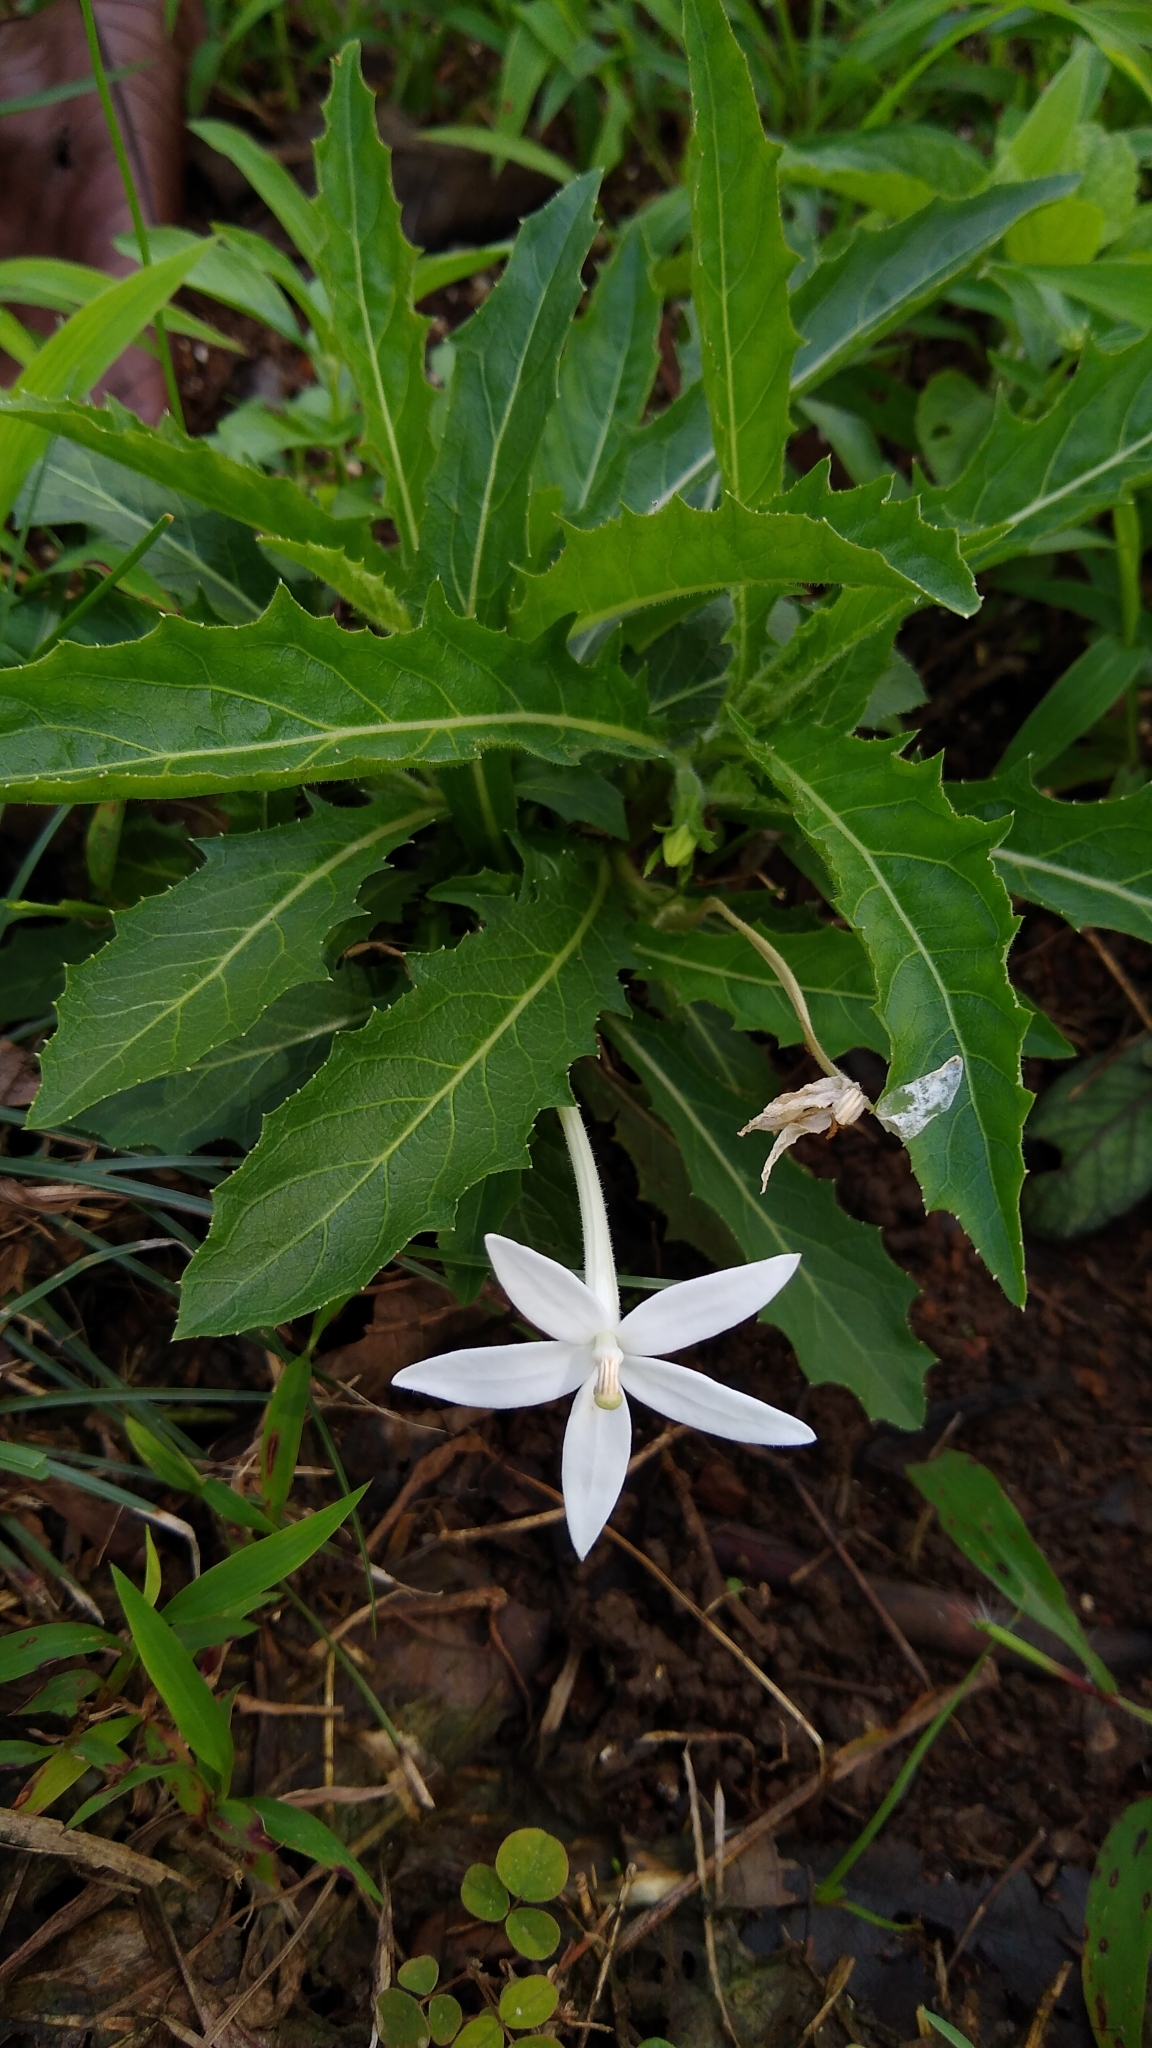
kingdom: Plantae
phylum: Tracheophyta
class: Magnoliopsida
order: Asterales
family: Campanulaceae
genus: Hippobroma
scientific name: Hippobroma longiflora
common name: Madamfate
